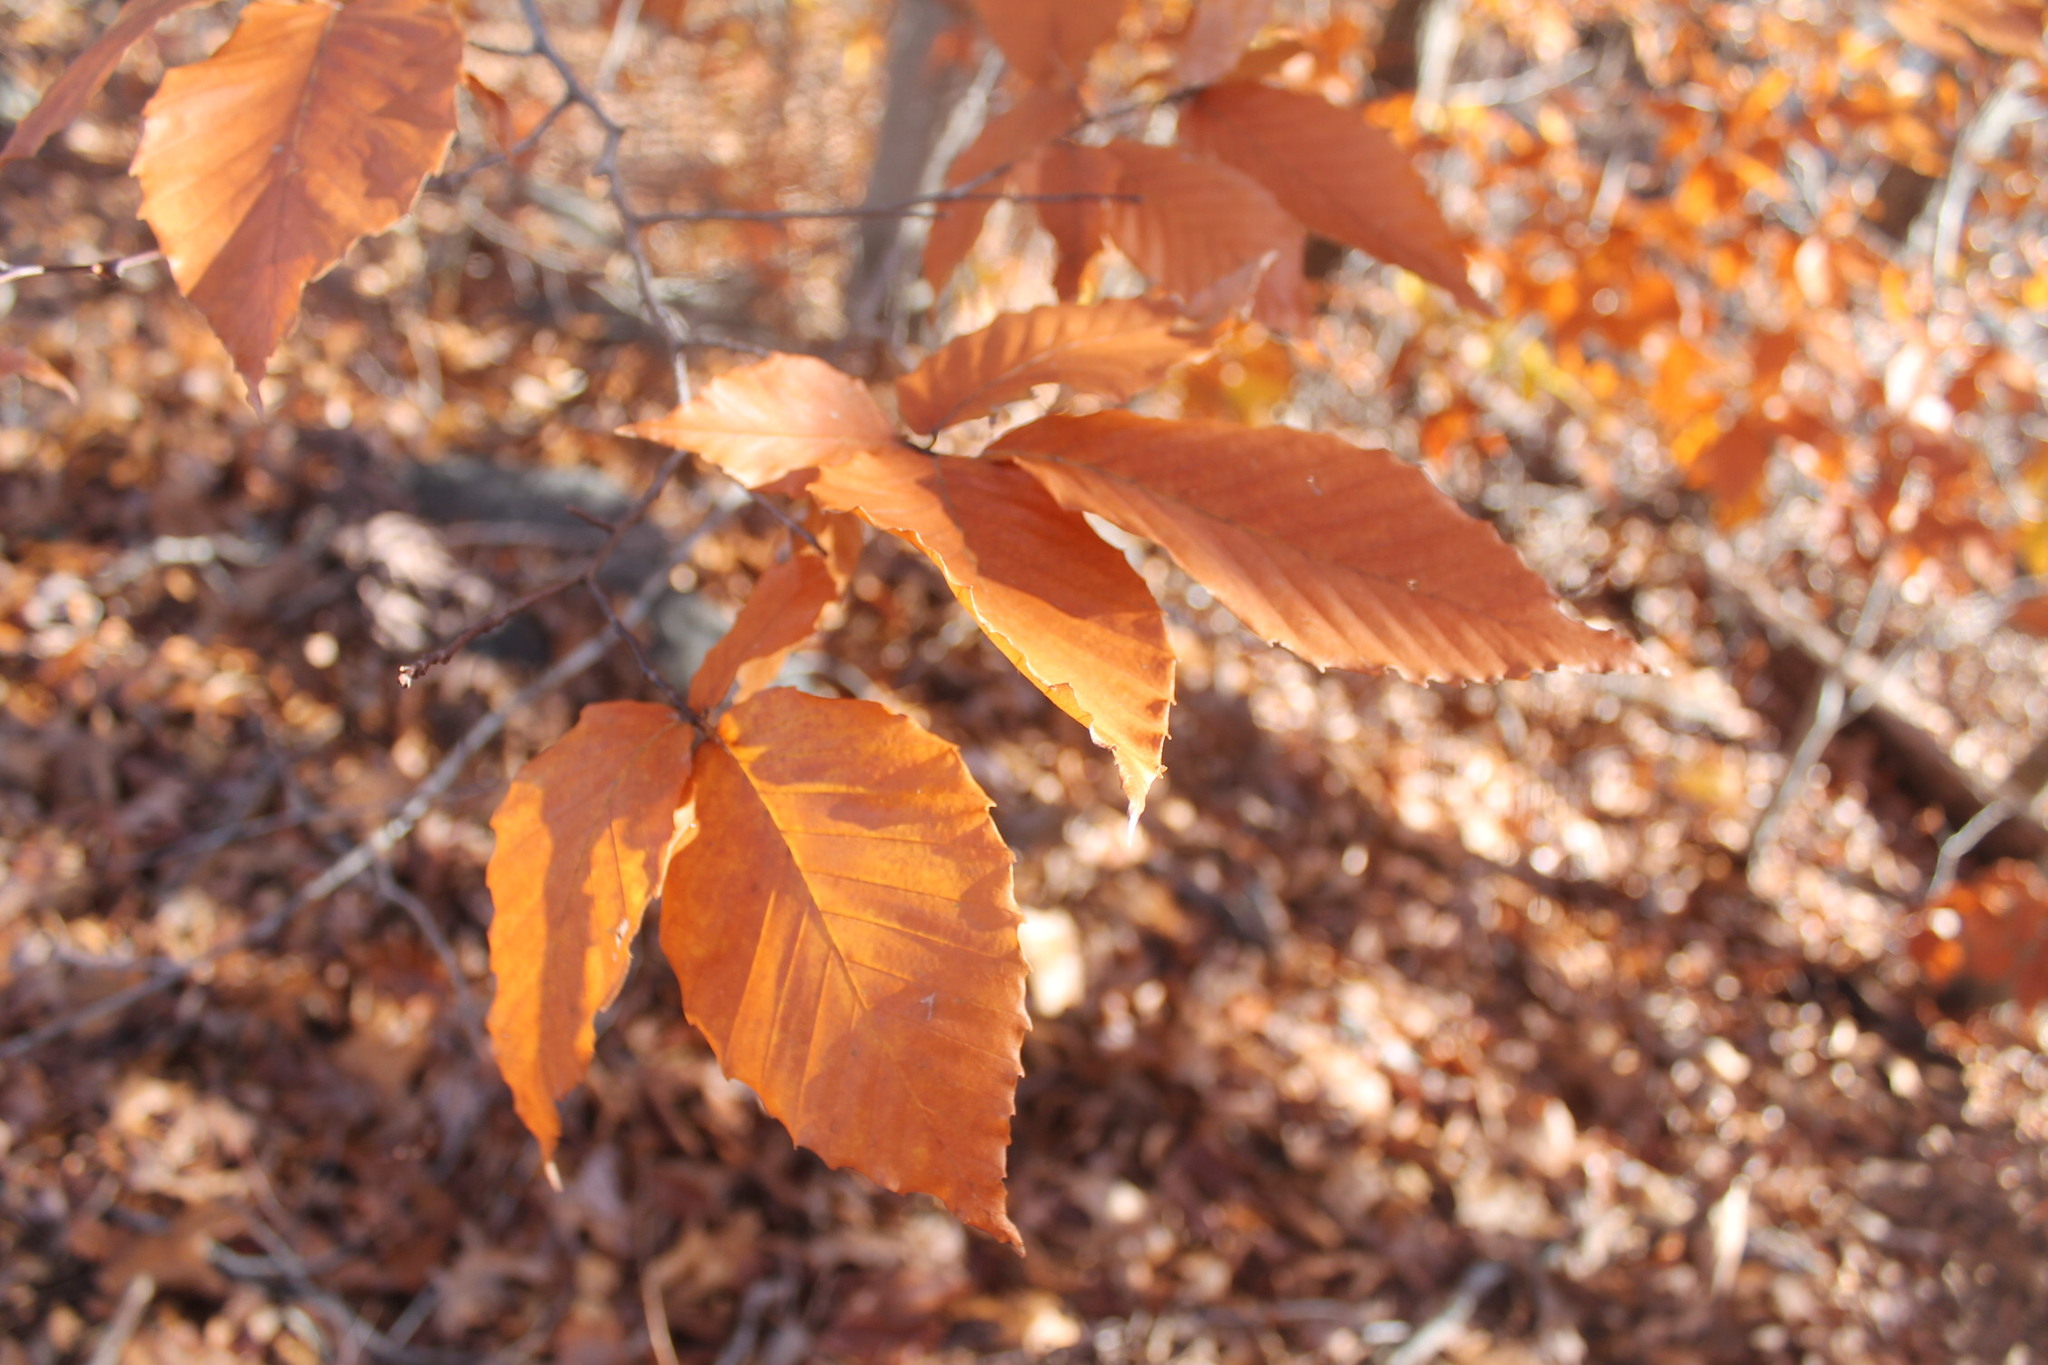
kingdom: Plantae
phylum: Tracheophyta
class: Magnoliopsida
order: Fagales
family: Fagaceae
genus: Fagus
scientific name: Fagus grandifolia
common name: American beech
